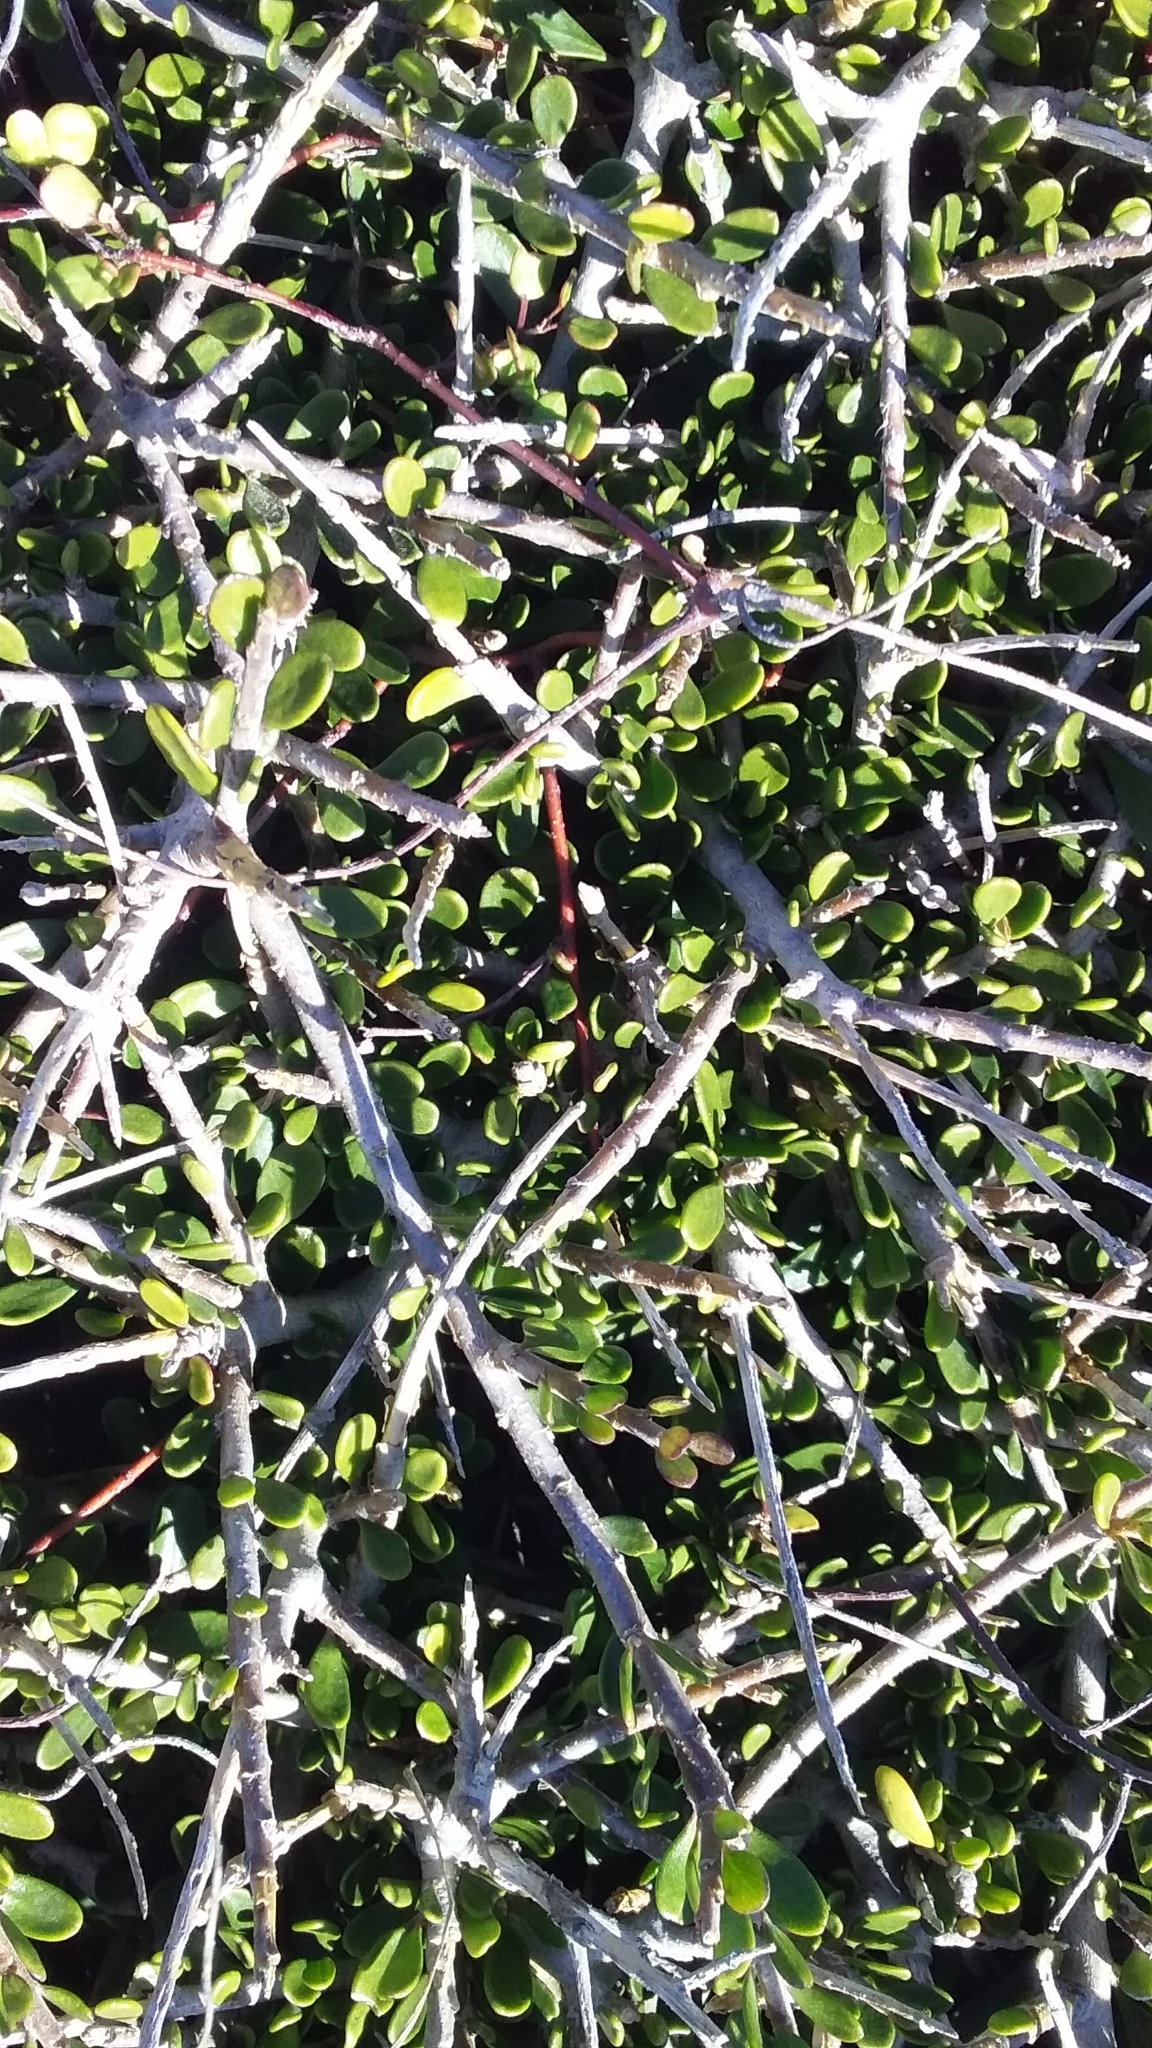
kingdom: Plantae
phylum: Tracheophyta
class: Magnoliopsida
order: Malpighiales
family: Violaceae
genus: Melicytus
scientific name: Melicytus alpinus
